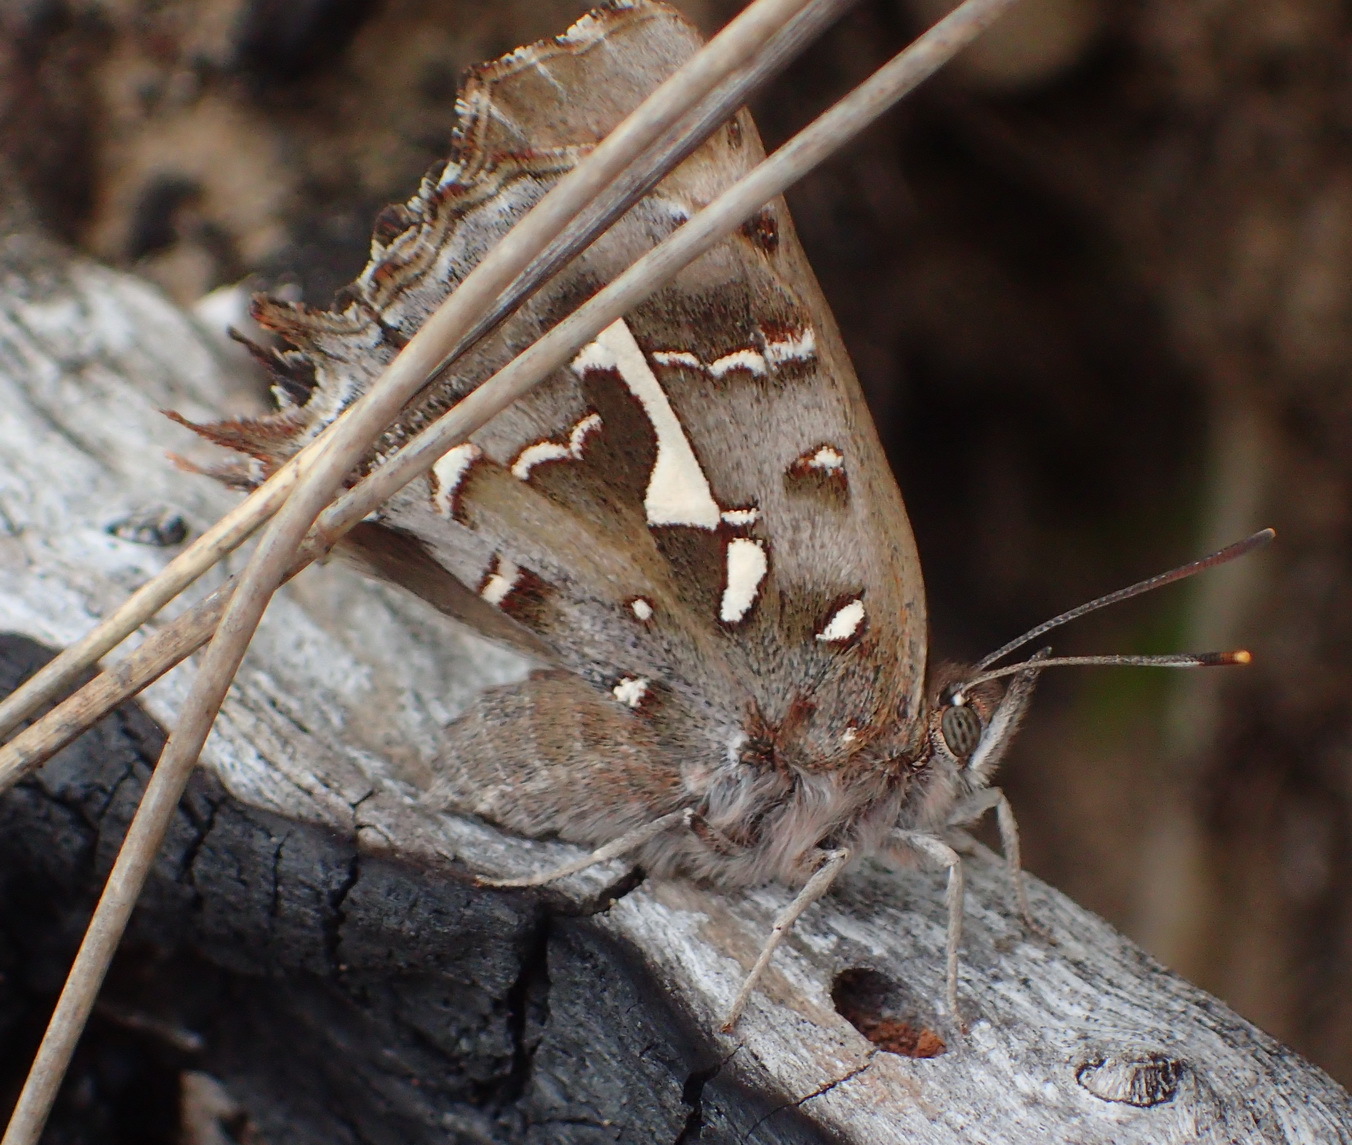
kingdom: Animalia
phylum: Arthropoda
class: Insecta
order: Lepidoptera
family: Lycaenidae
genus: Phasis
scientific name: Phasis thero
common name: Silver arrowhead
